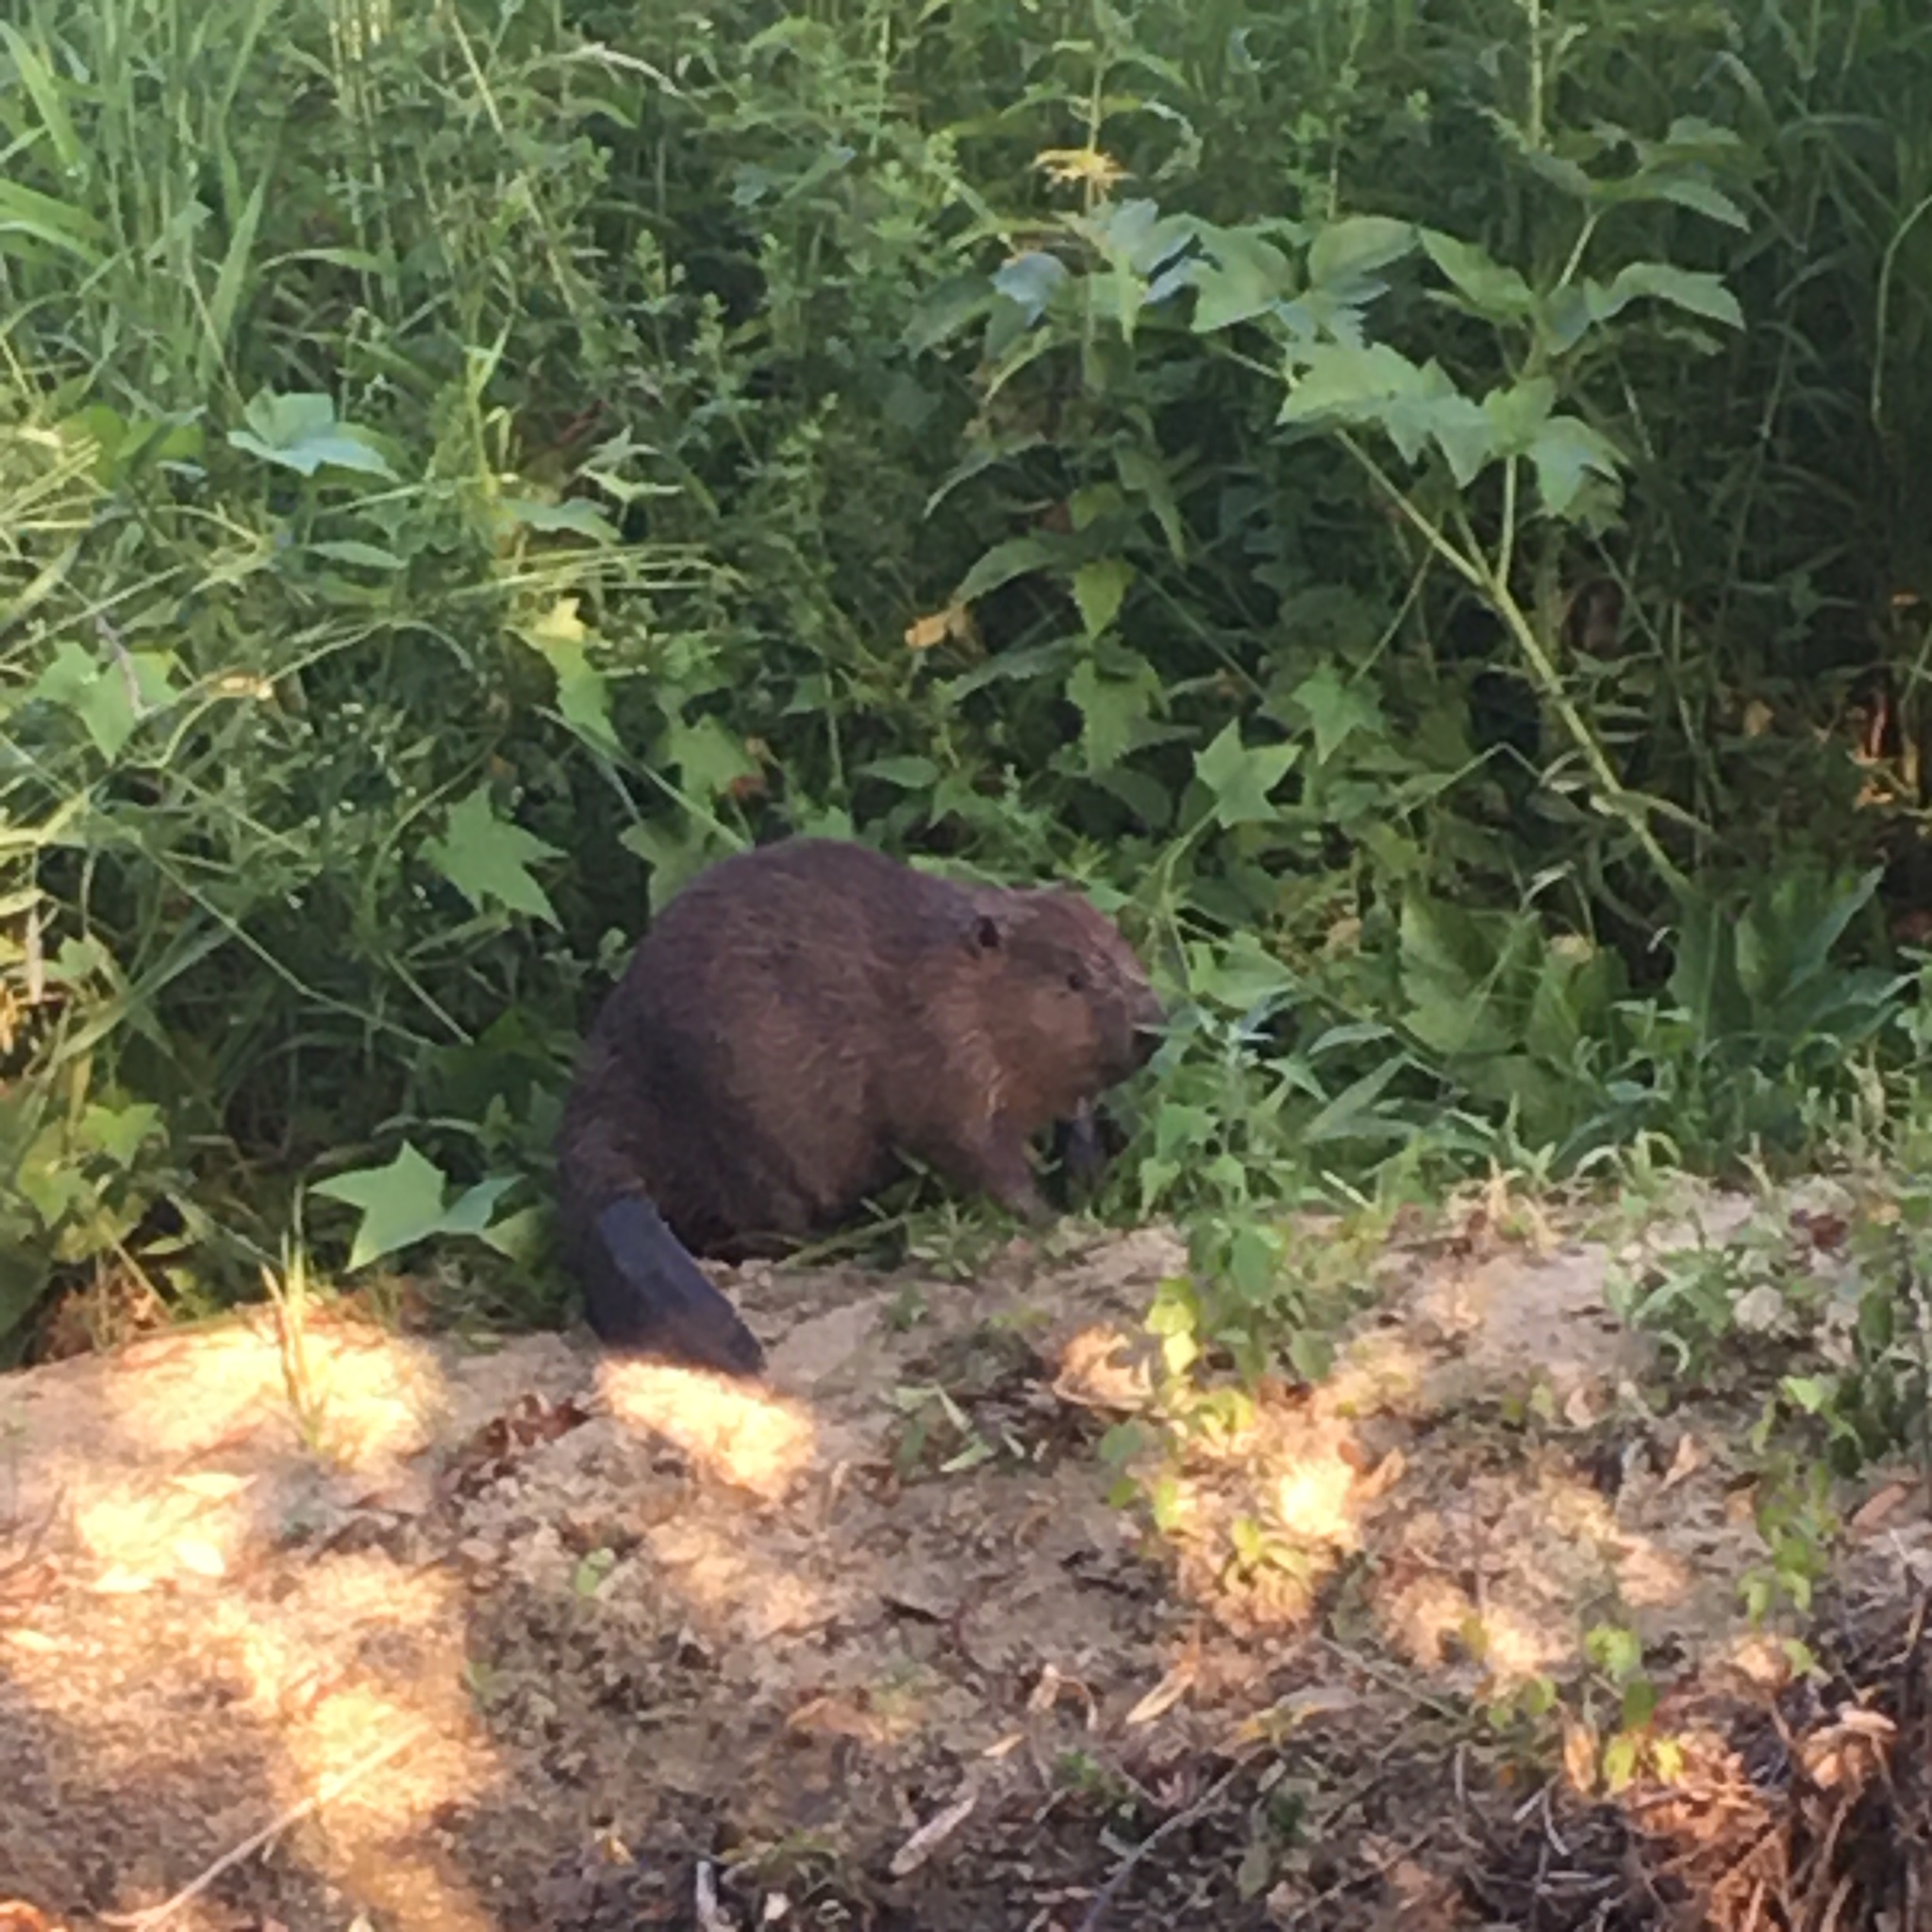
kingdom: Animalia
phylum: Chordata
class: Mammalia
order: Rodentia
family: Castoridae
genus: Castor
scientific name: Castor fiber
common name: Eurasian beaver
